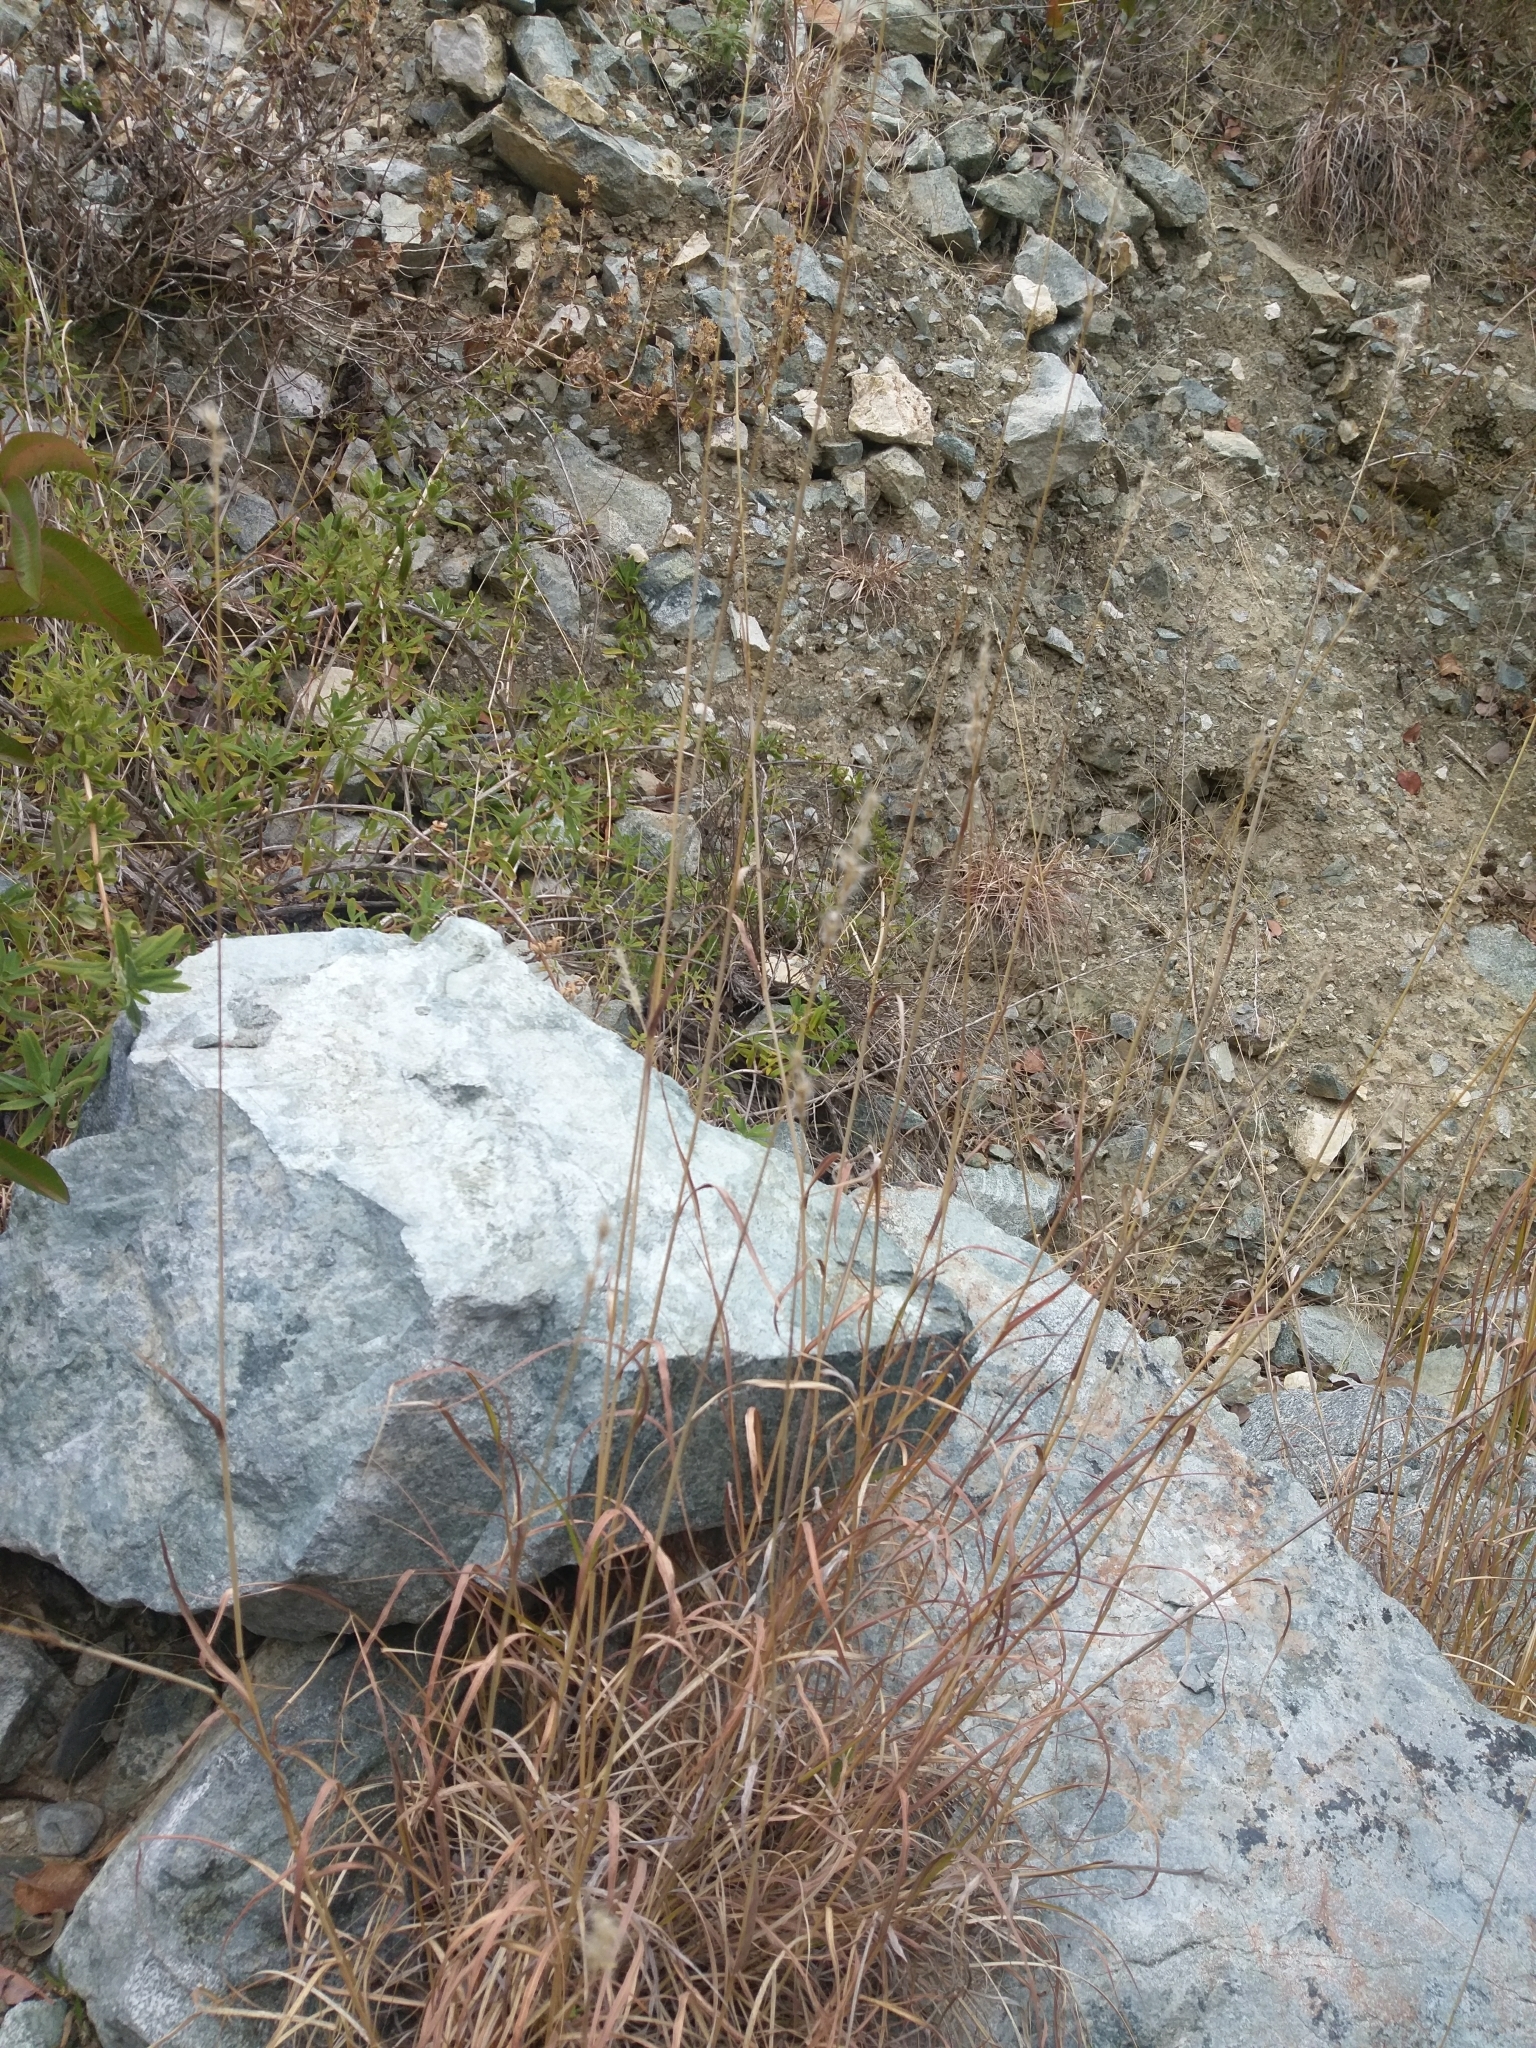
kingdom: Plantae
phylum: Tracheophyta
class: Liliopsida
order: Poales
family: Poaceae
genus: Bothriochloa
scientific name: Bothriochloa barbinodis
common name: Cane bluestem
